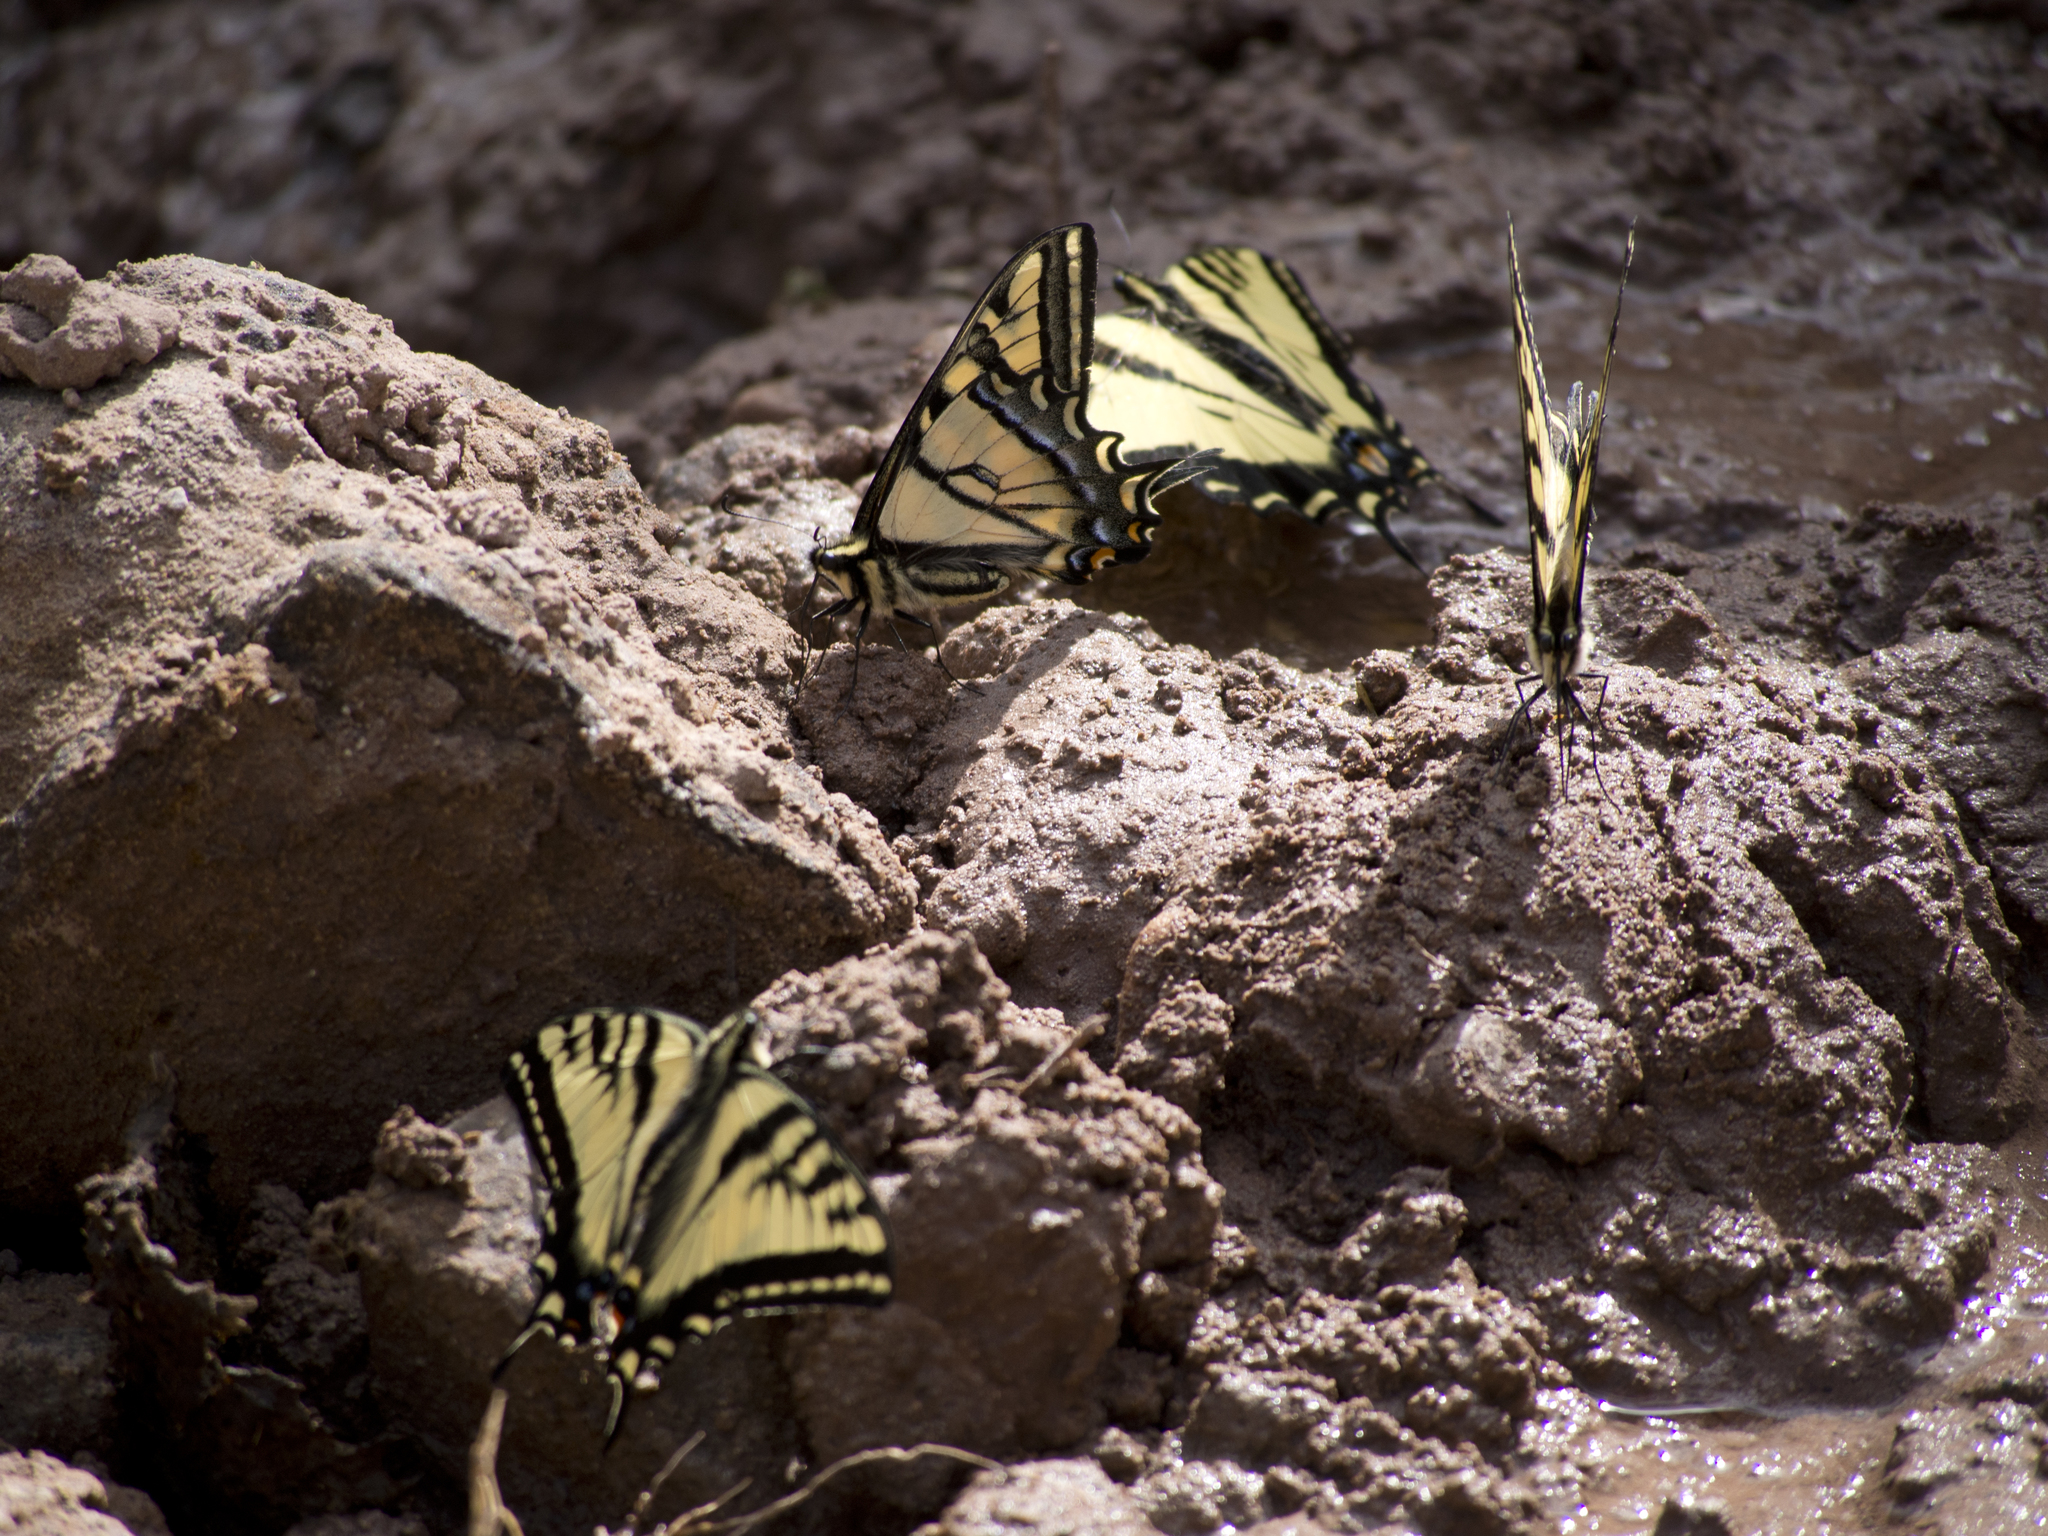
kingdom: Animalia
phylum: Arthropoda
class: Insecta
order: Lepidoptera
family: Papilionidae
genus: Papilio
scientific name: Papilio rutulus
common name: Western tiger swallowtail
